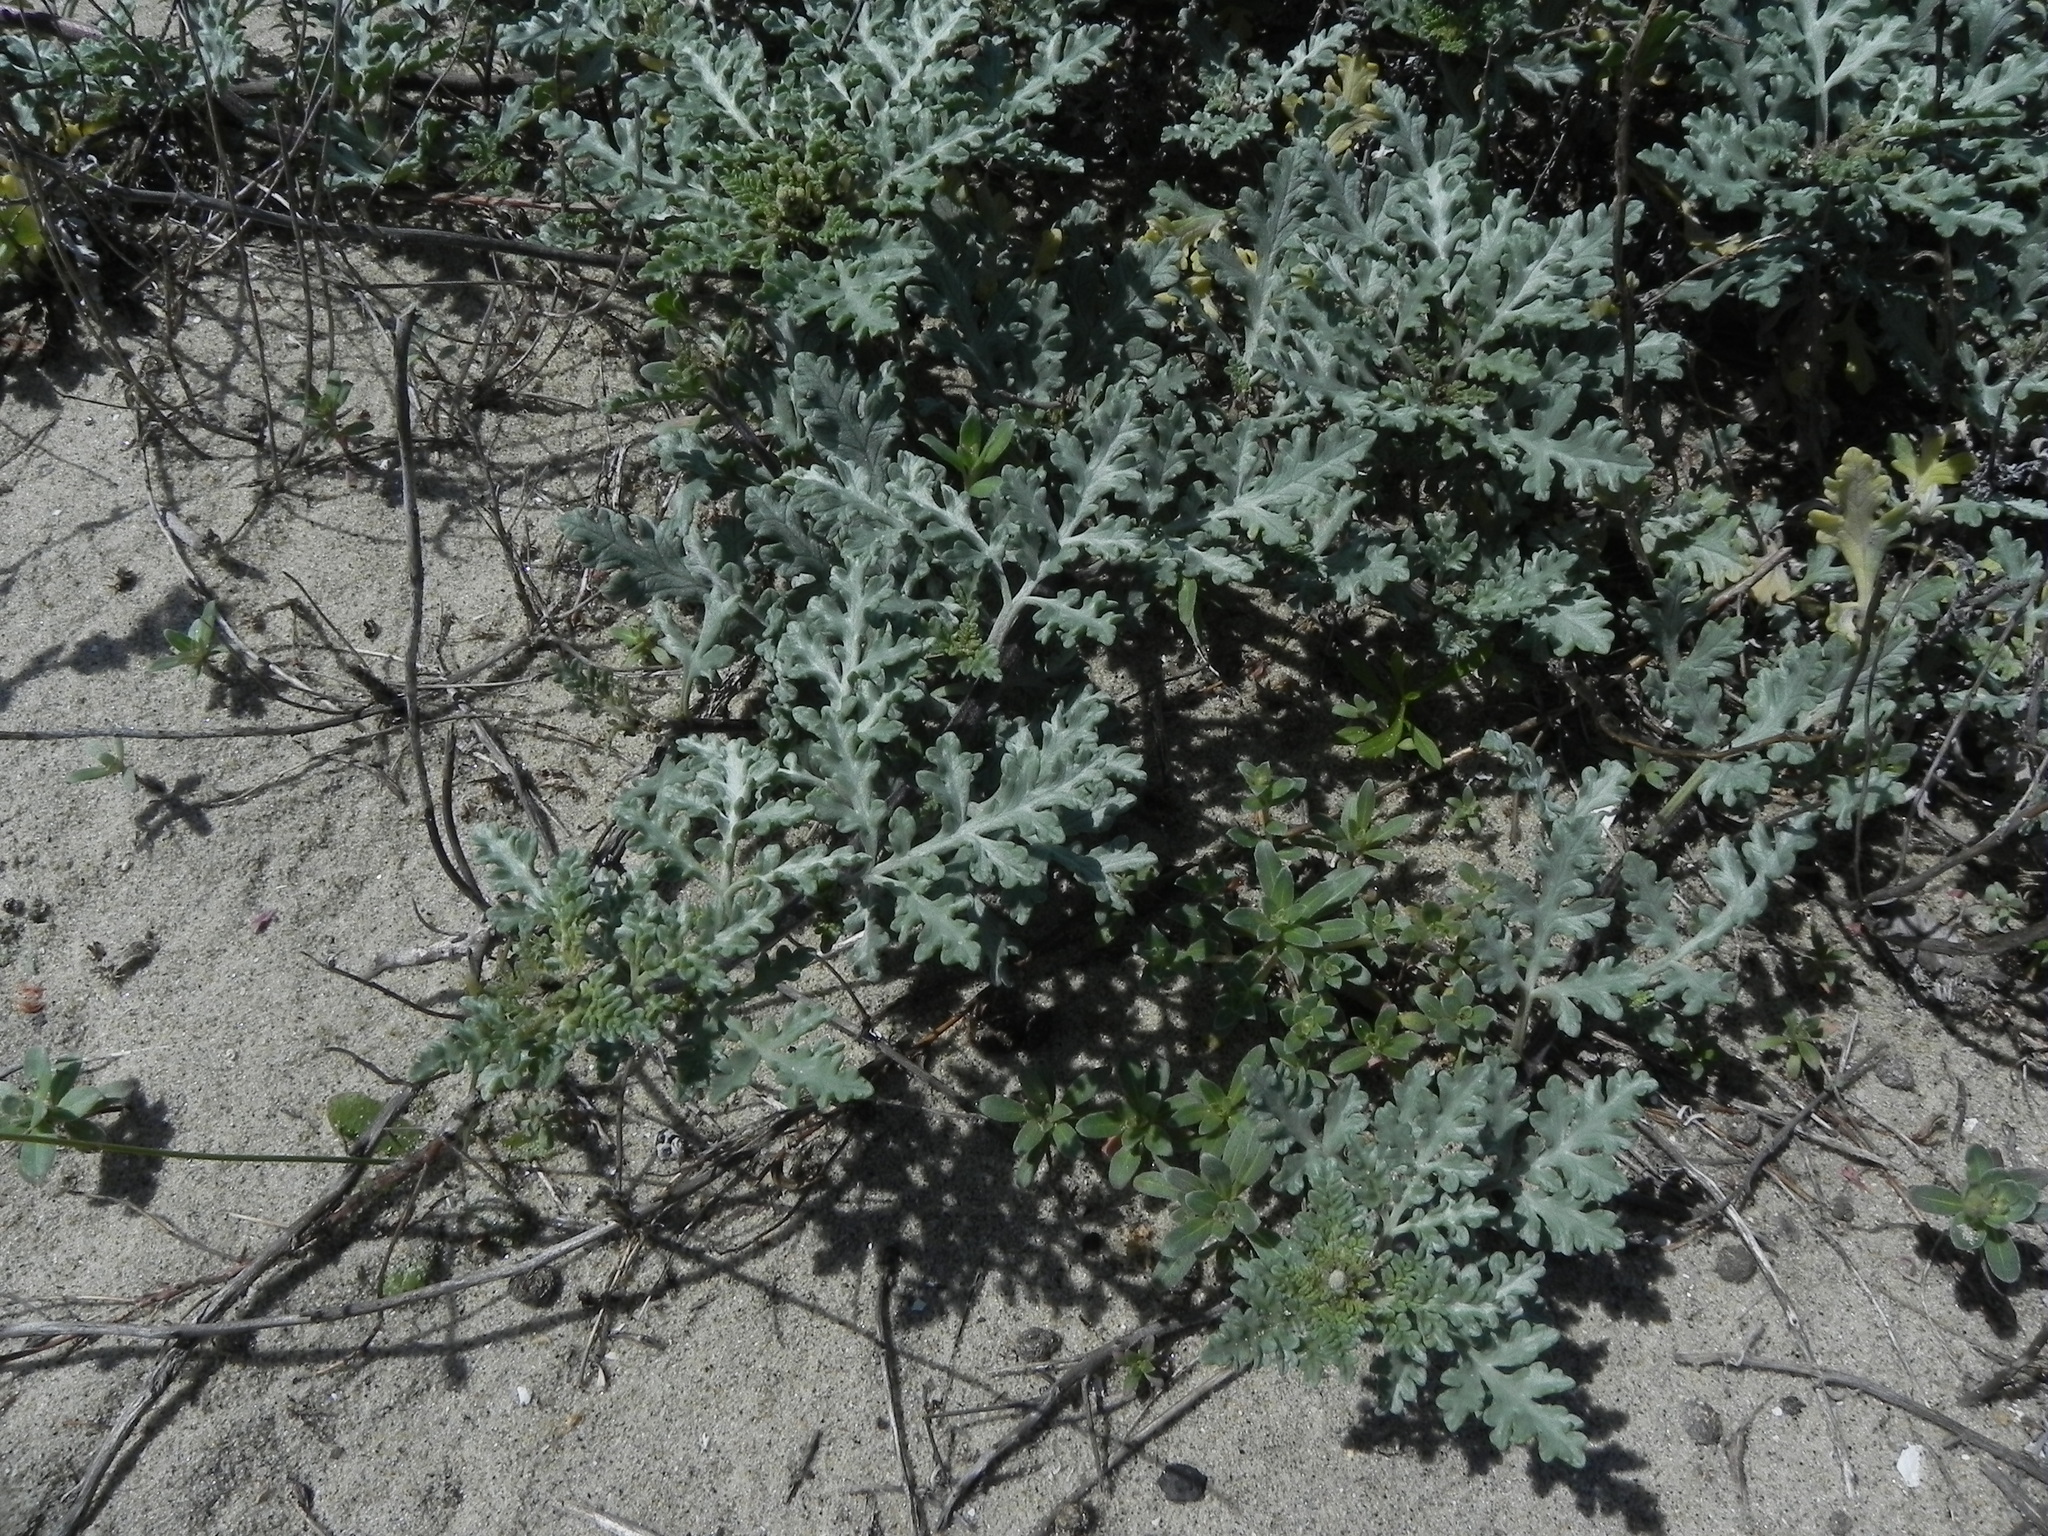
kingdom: Plantae
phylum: Tracheophyta
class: Magnoliopsida
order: Asterales
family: Asteraceae
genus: Ambrosia
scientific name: Ambrosia chamissonis
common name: Beachbur
